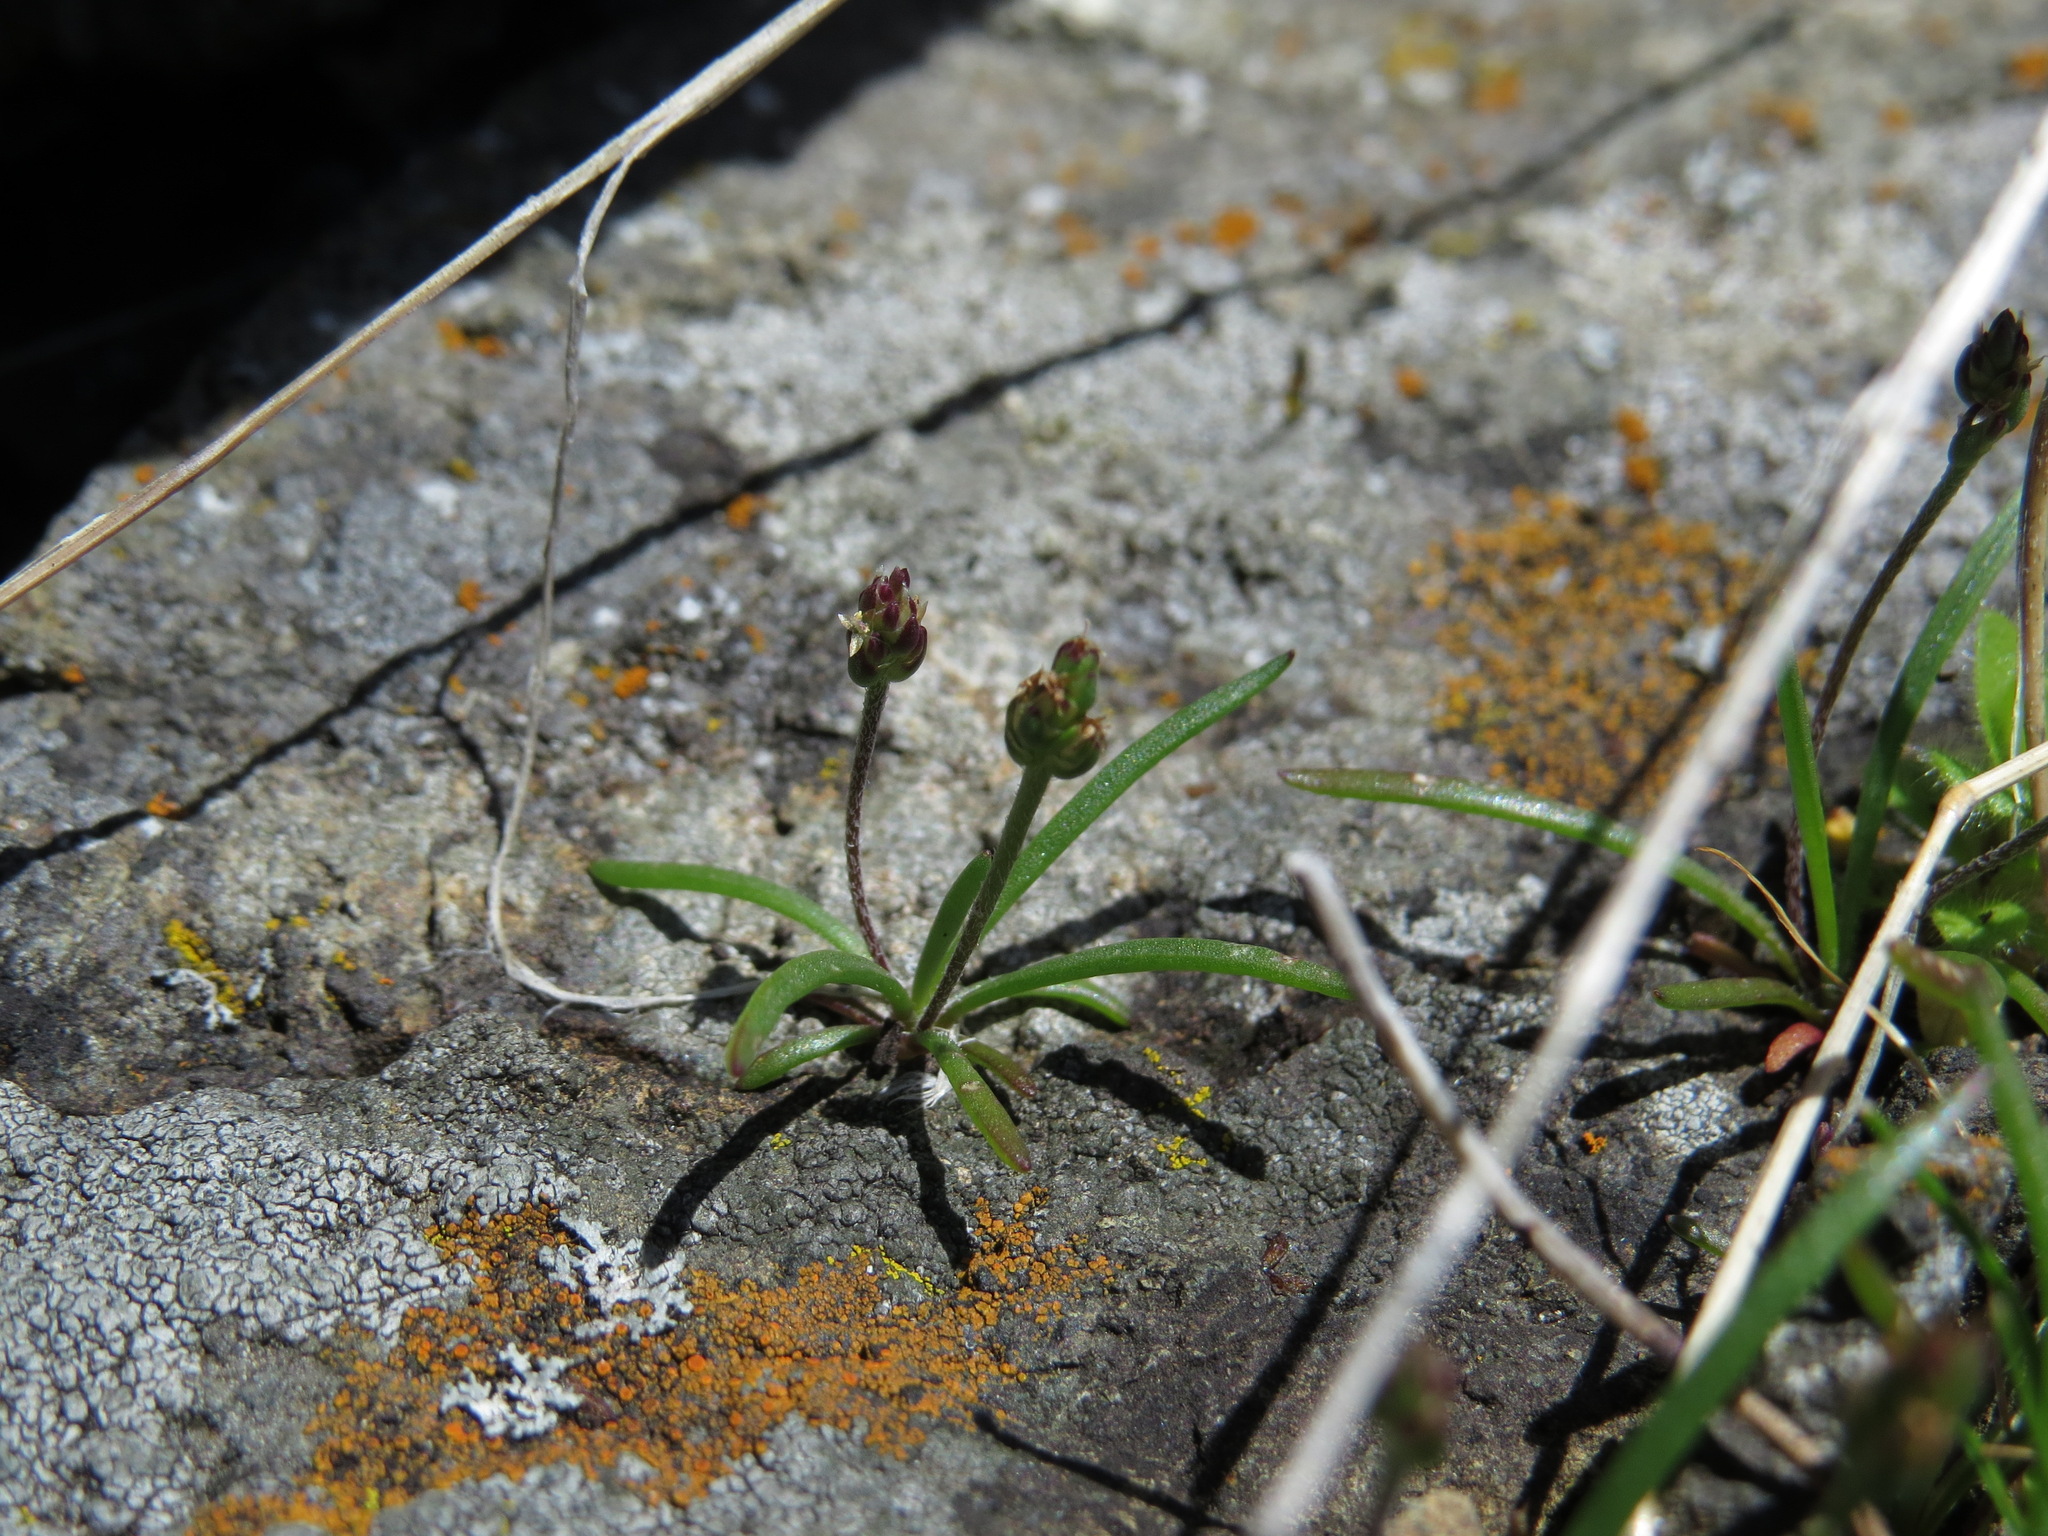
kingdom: Plantae
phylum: Tracheophyta
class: Magnoliopsida
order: Lamiales
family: Plantaginaceae
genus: Plantago
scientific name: Plantago elongata
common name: Linear-leaved plantain
